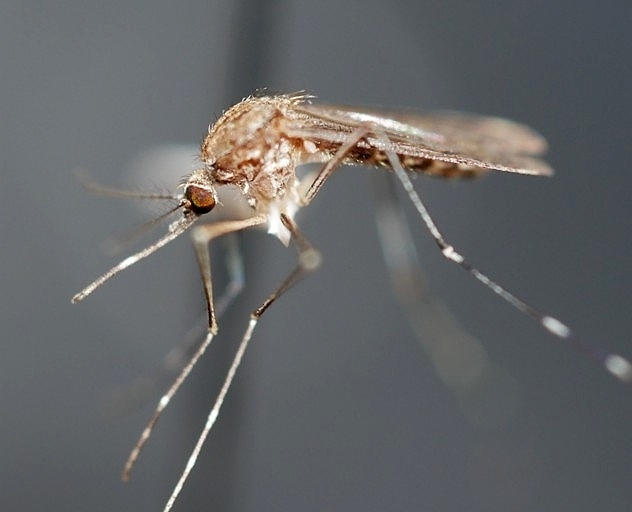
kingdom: Animalia
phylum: Arthropoda
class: Insecta
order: Diptera
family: Culicidae
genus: Culex
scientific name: Culex tarsalis
